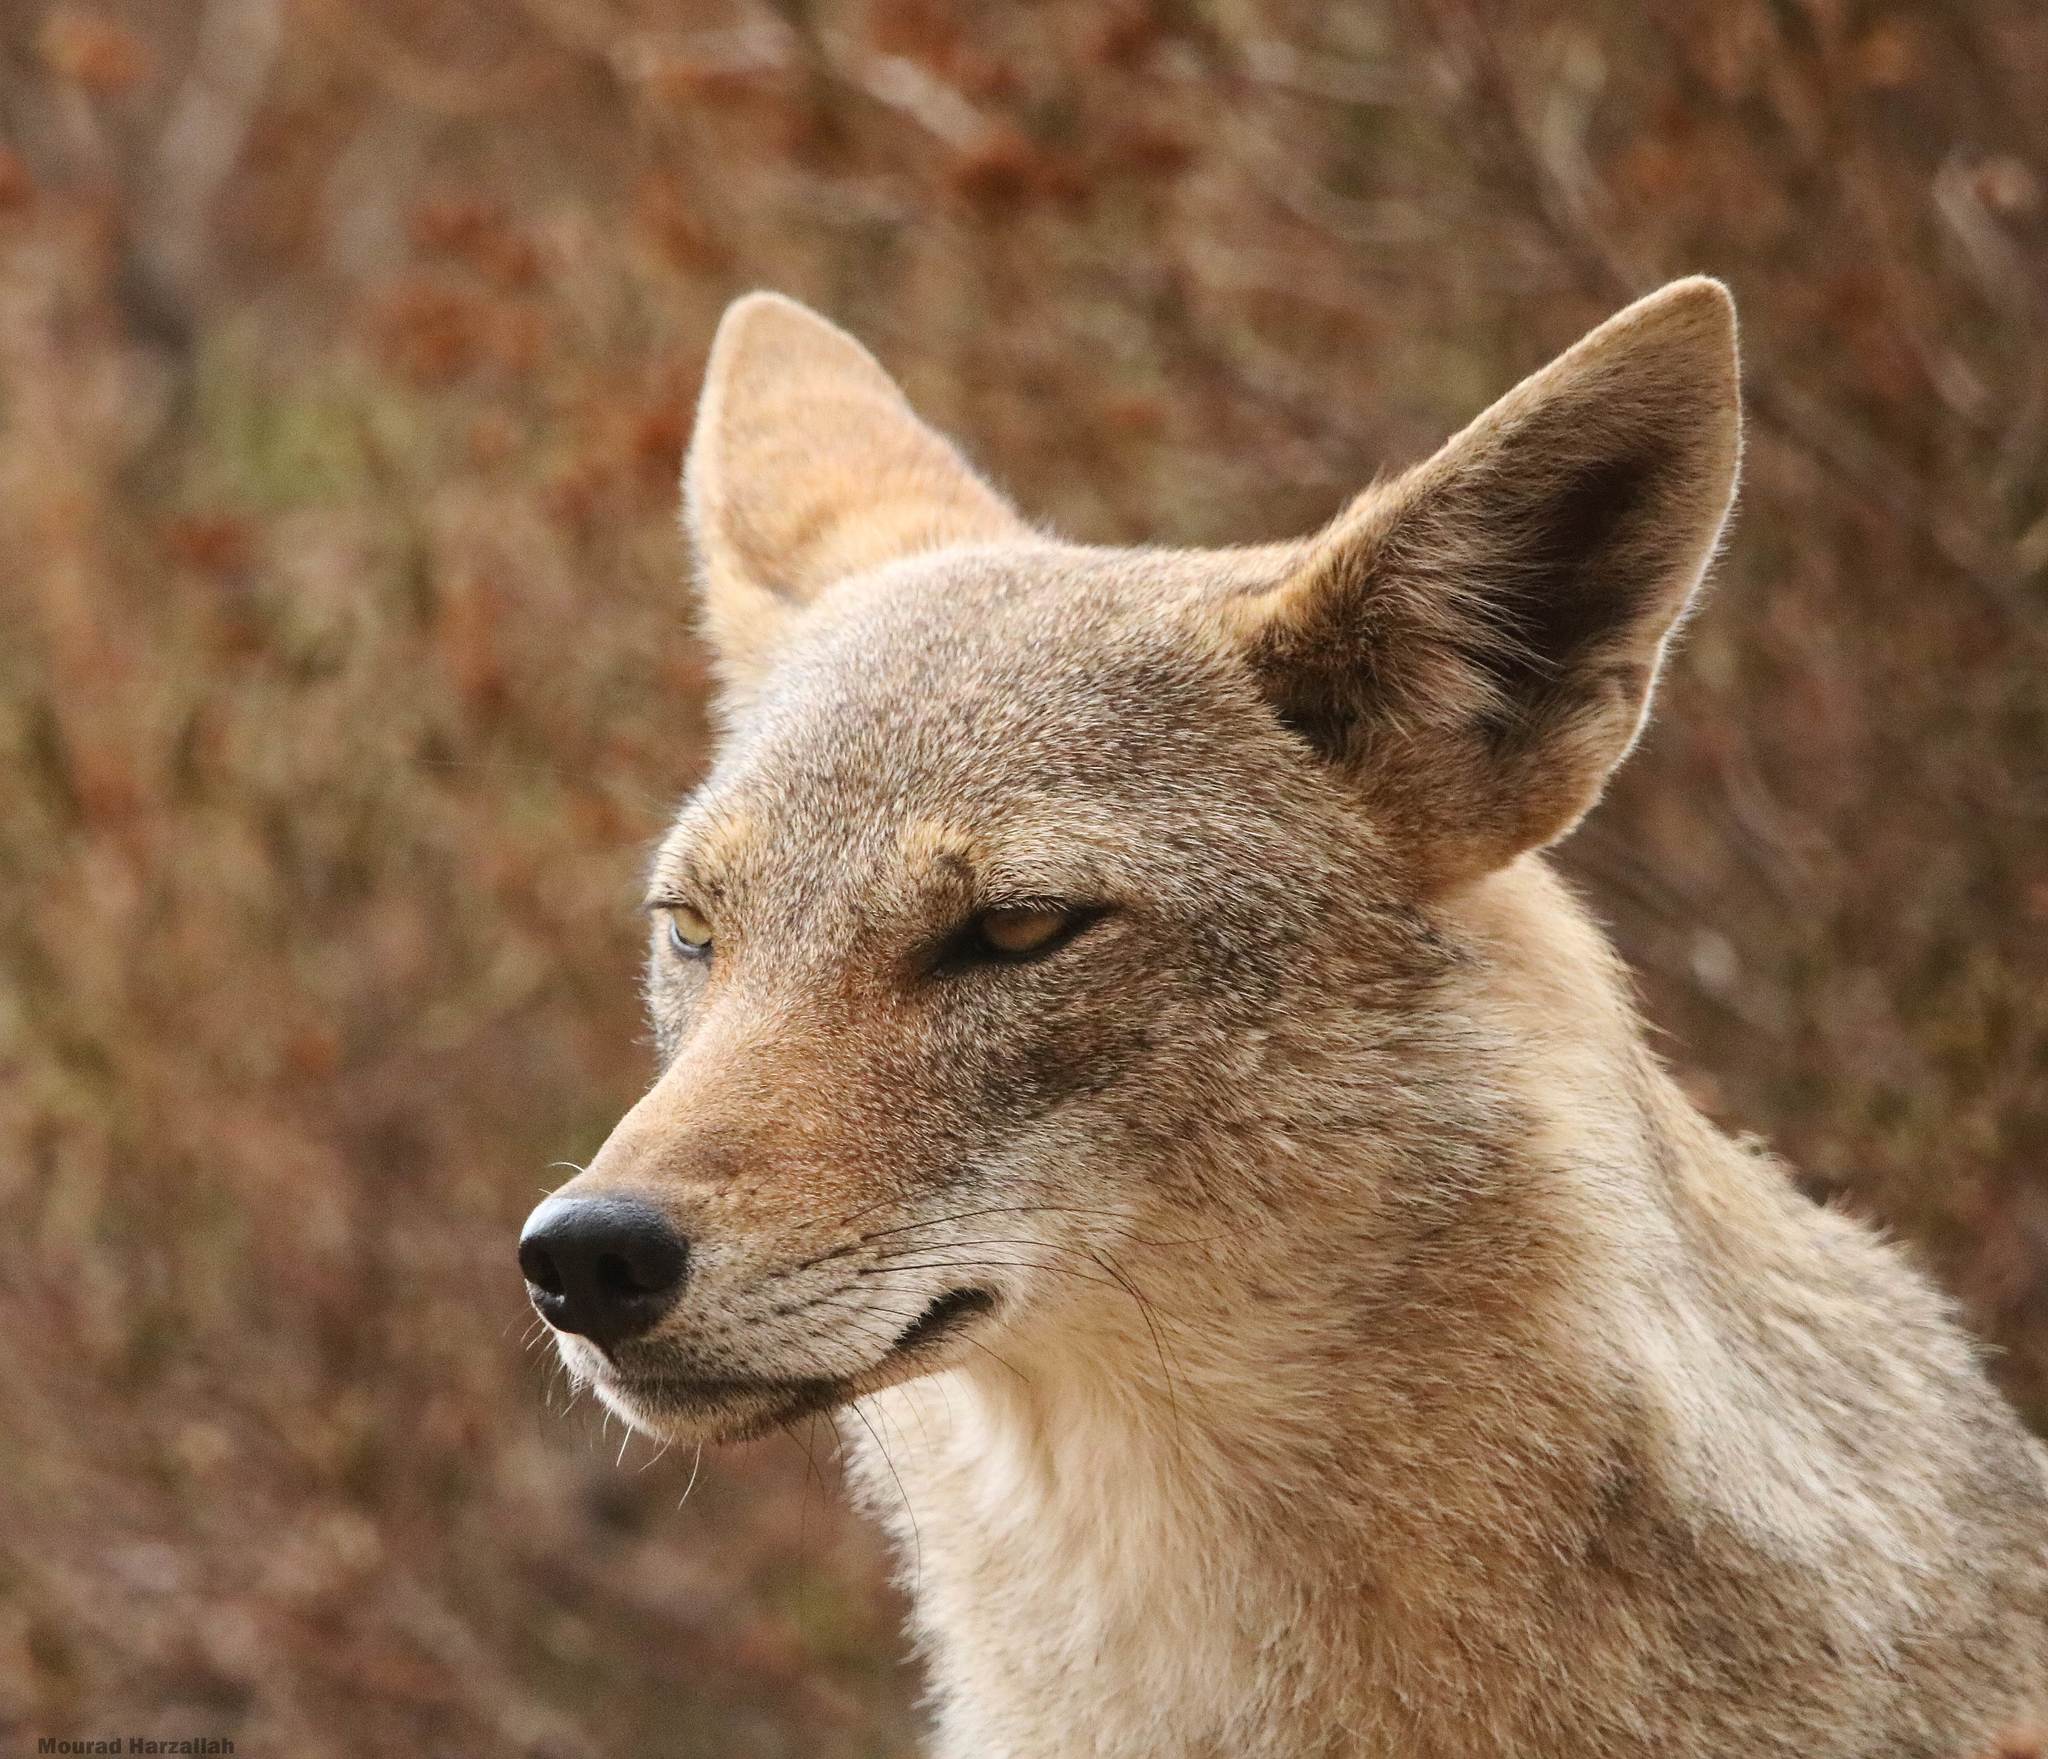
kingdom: Animalia
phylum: Chordata
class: Mammalia
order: Carnivora
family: Canidae
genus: Canis
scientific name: Canis lupaster
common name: African golden wolf
